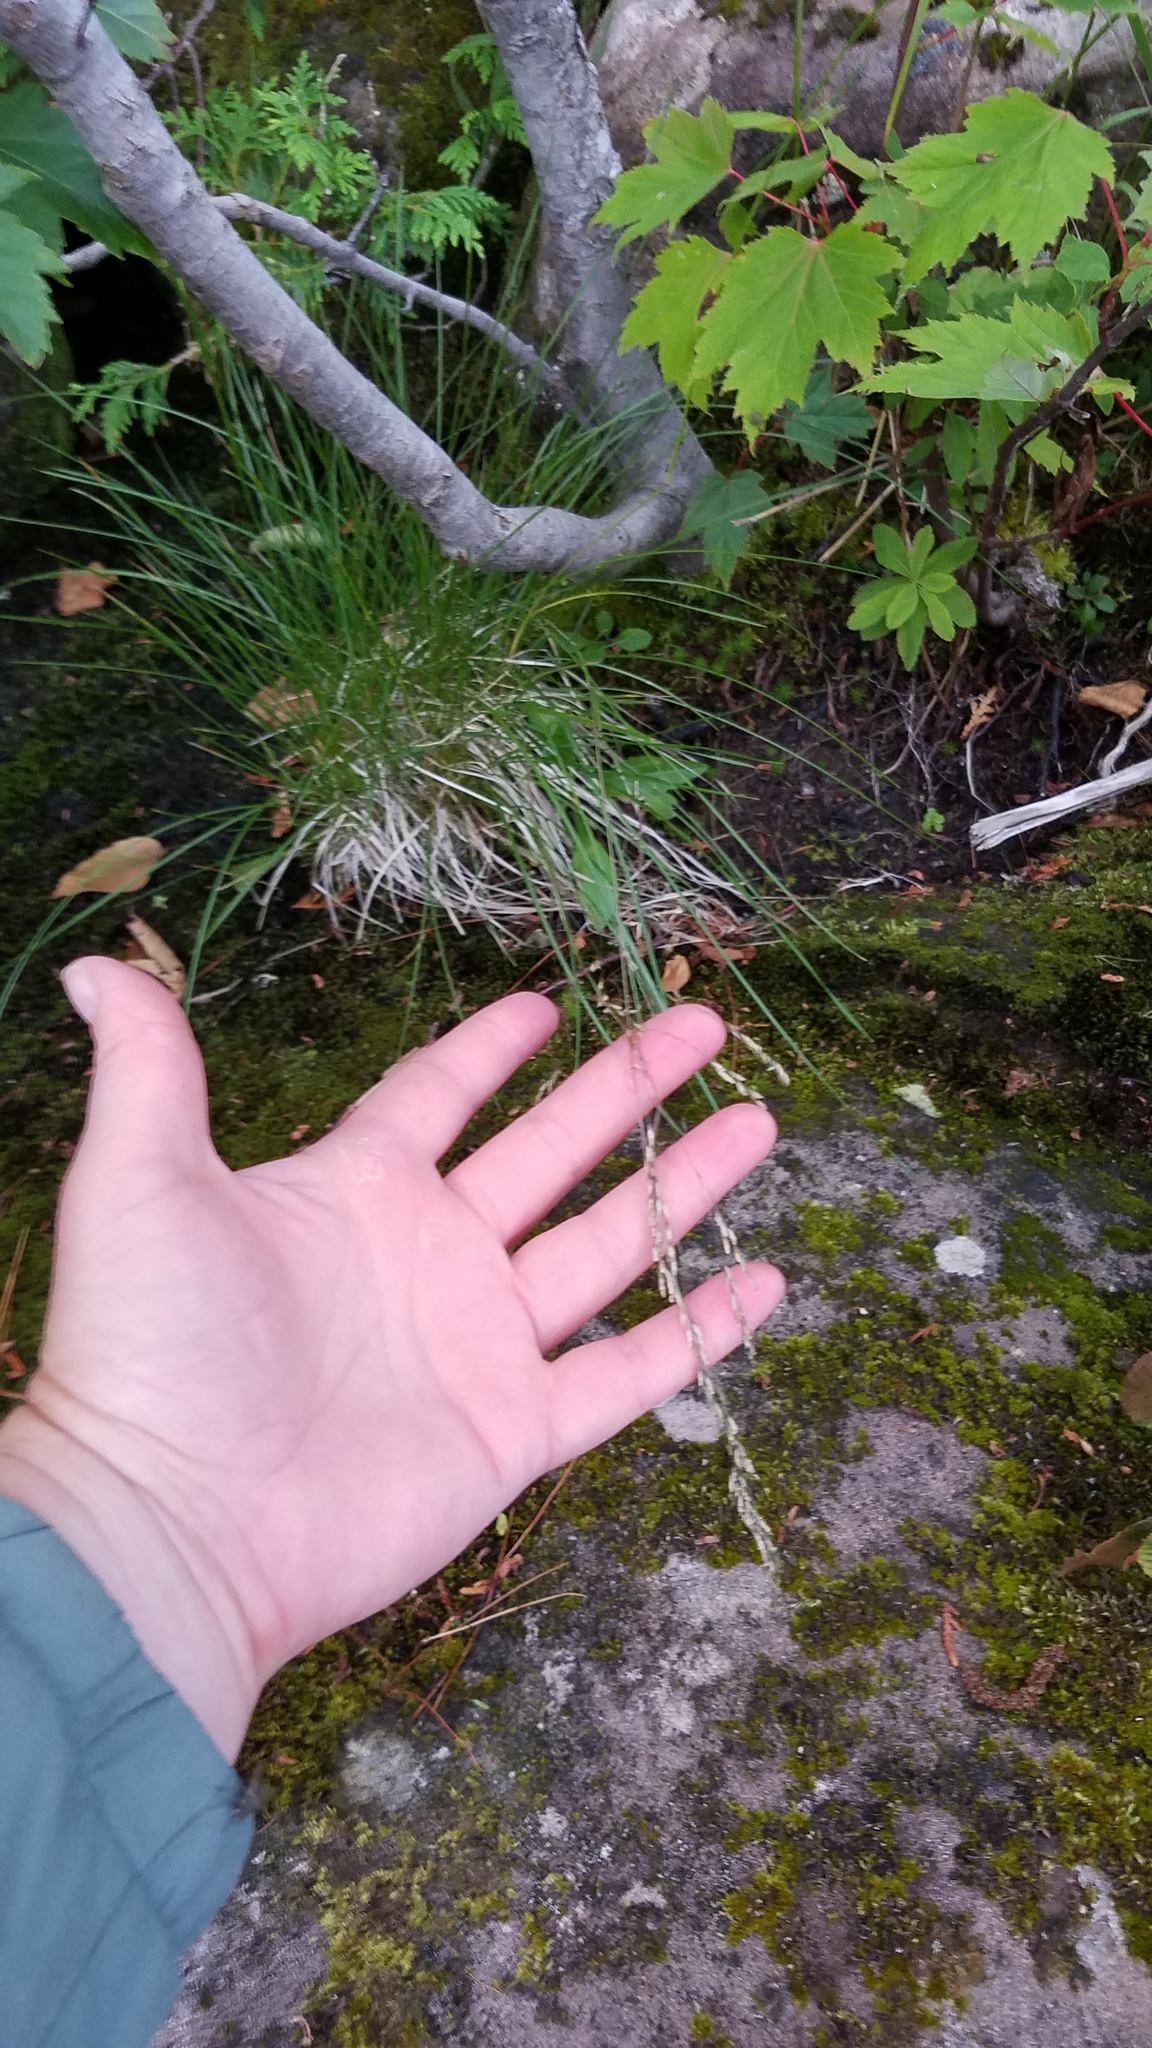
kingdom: Plantae
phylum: Tracheophyta
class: Liliopsida
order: Poales
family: Poaceae
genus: Deschampsia
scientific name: Deschampsia cespitosa
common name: Tufted hair-grass
